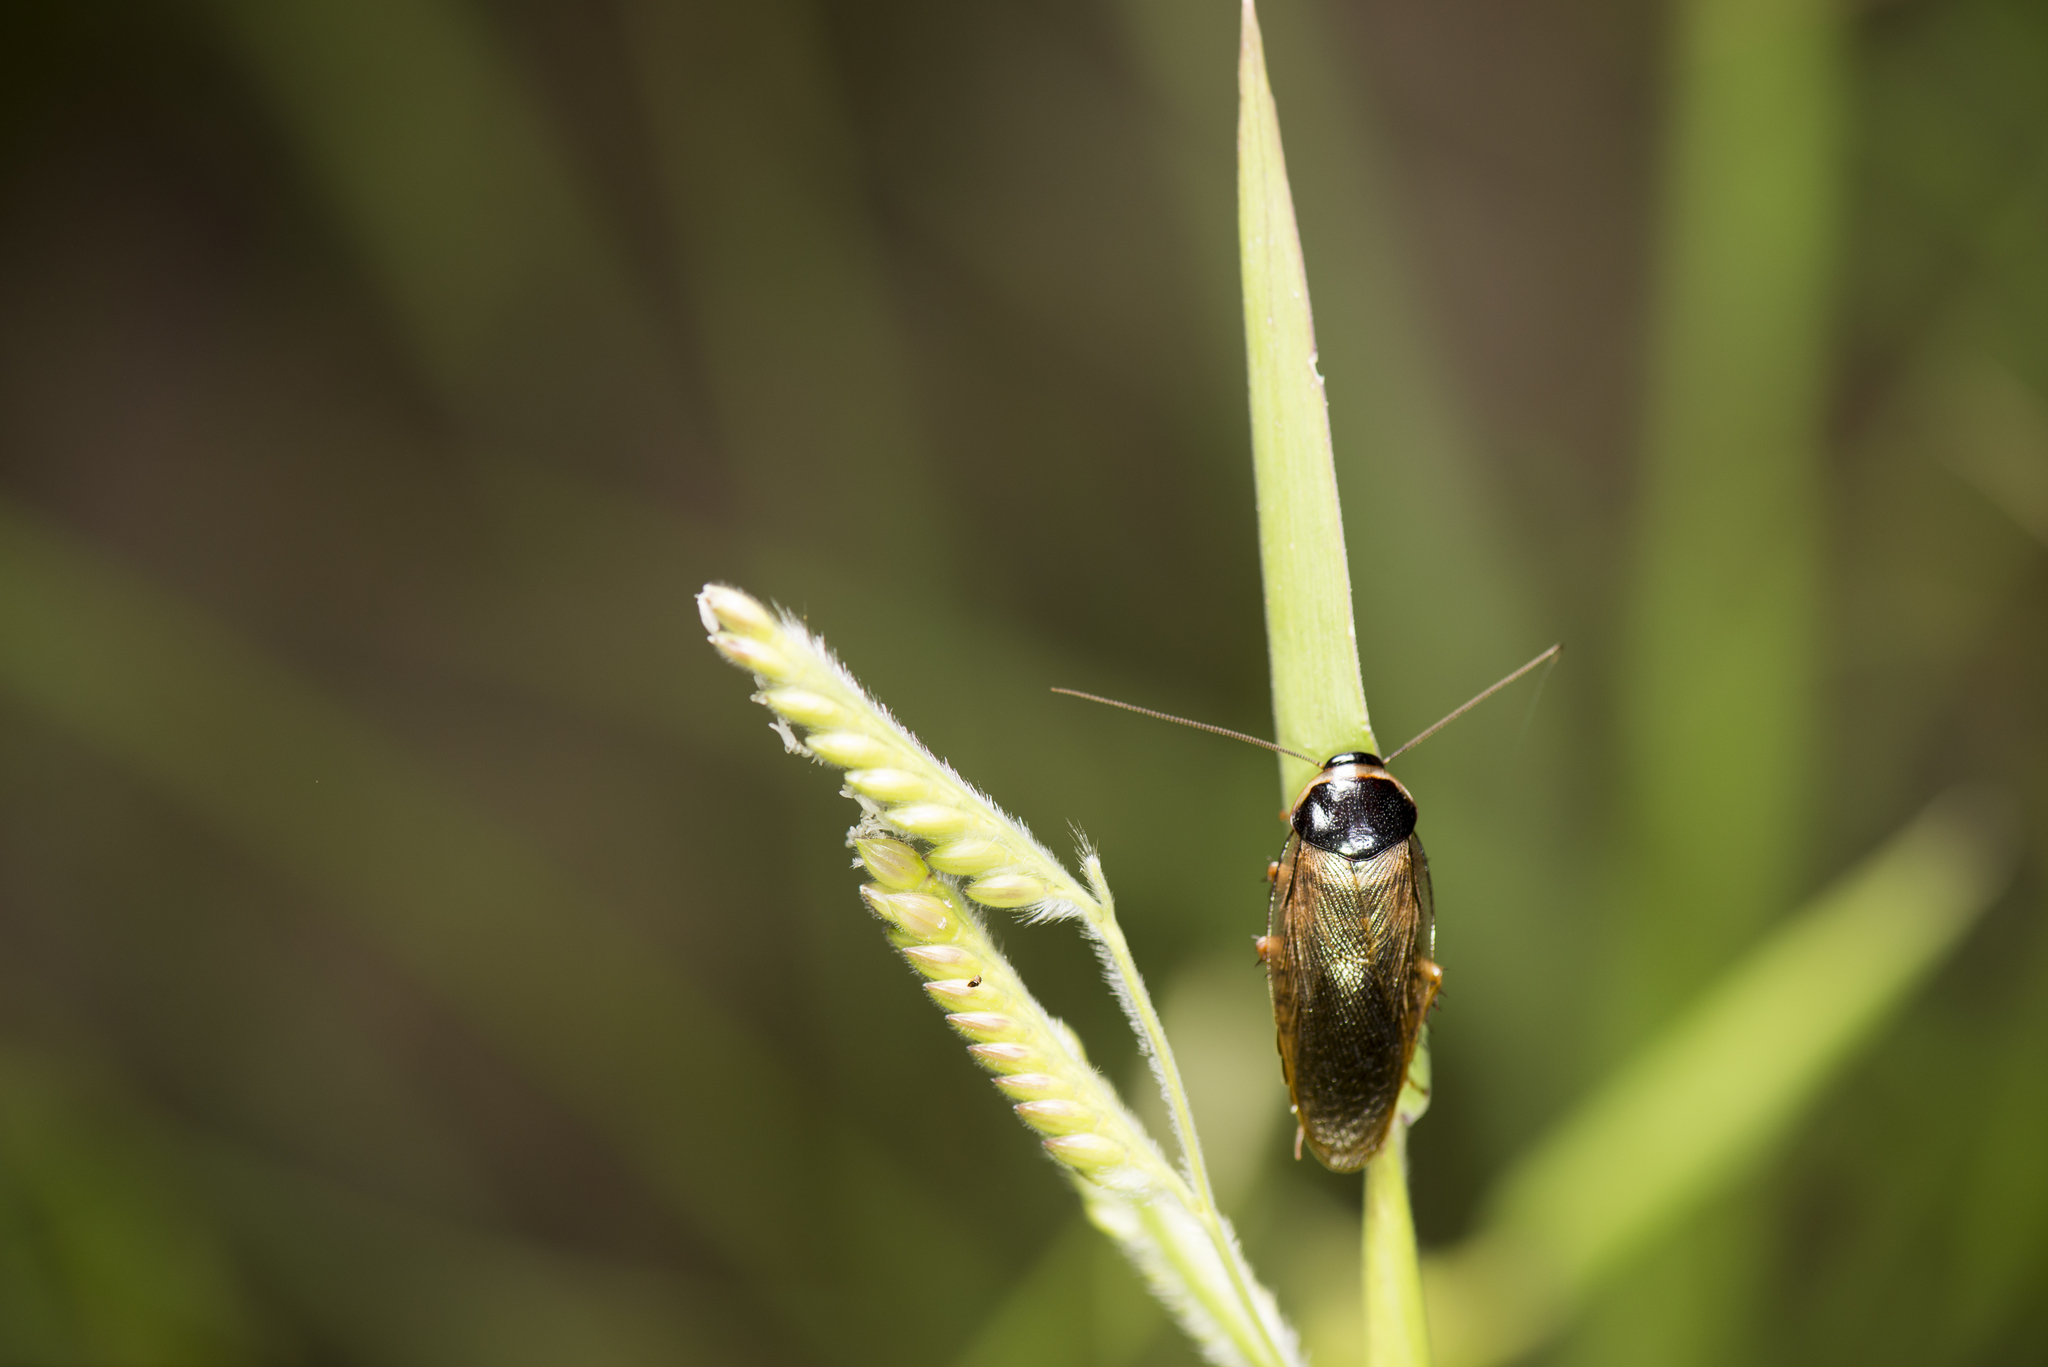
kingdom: Animalia
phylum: Arthropoda
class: Insecta
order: Blattodea
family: Blaberidae
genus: Pycnoscelus
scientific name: Pycnoscelus indicus
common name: Burrowing cockroach
